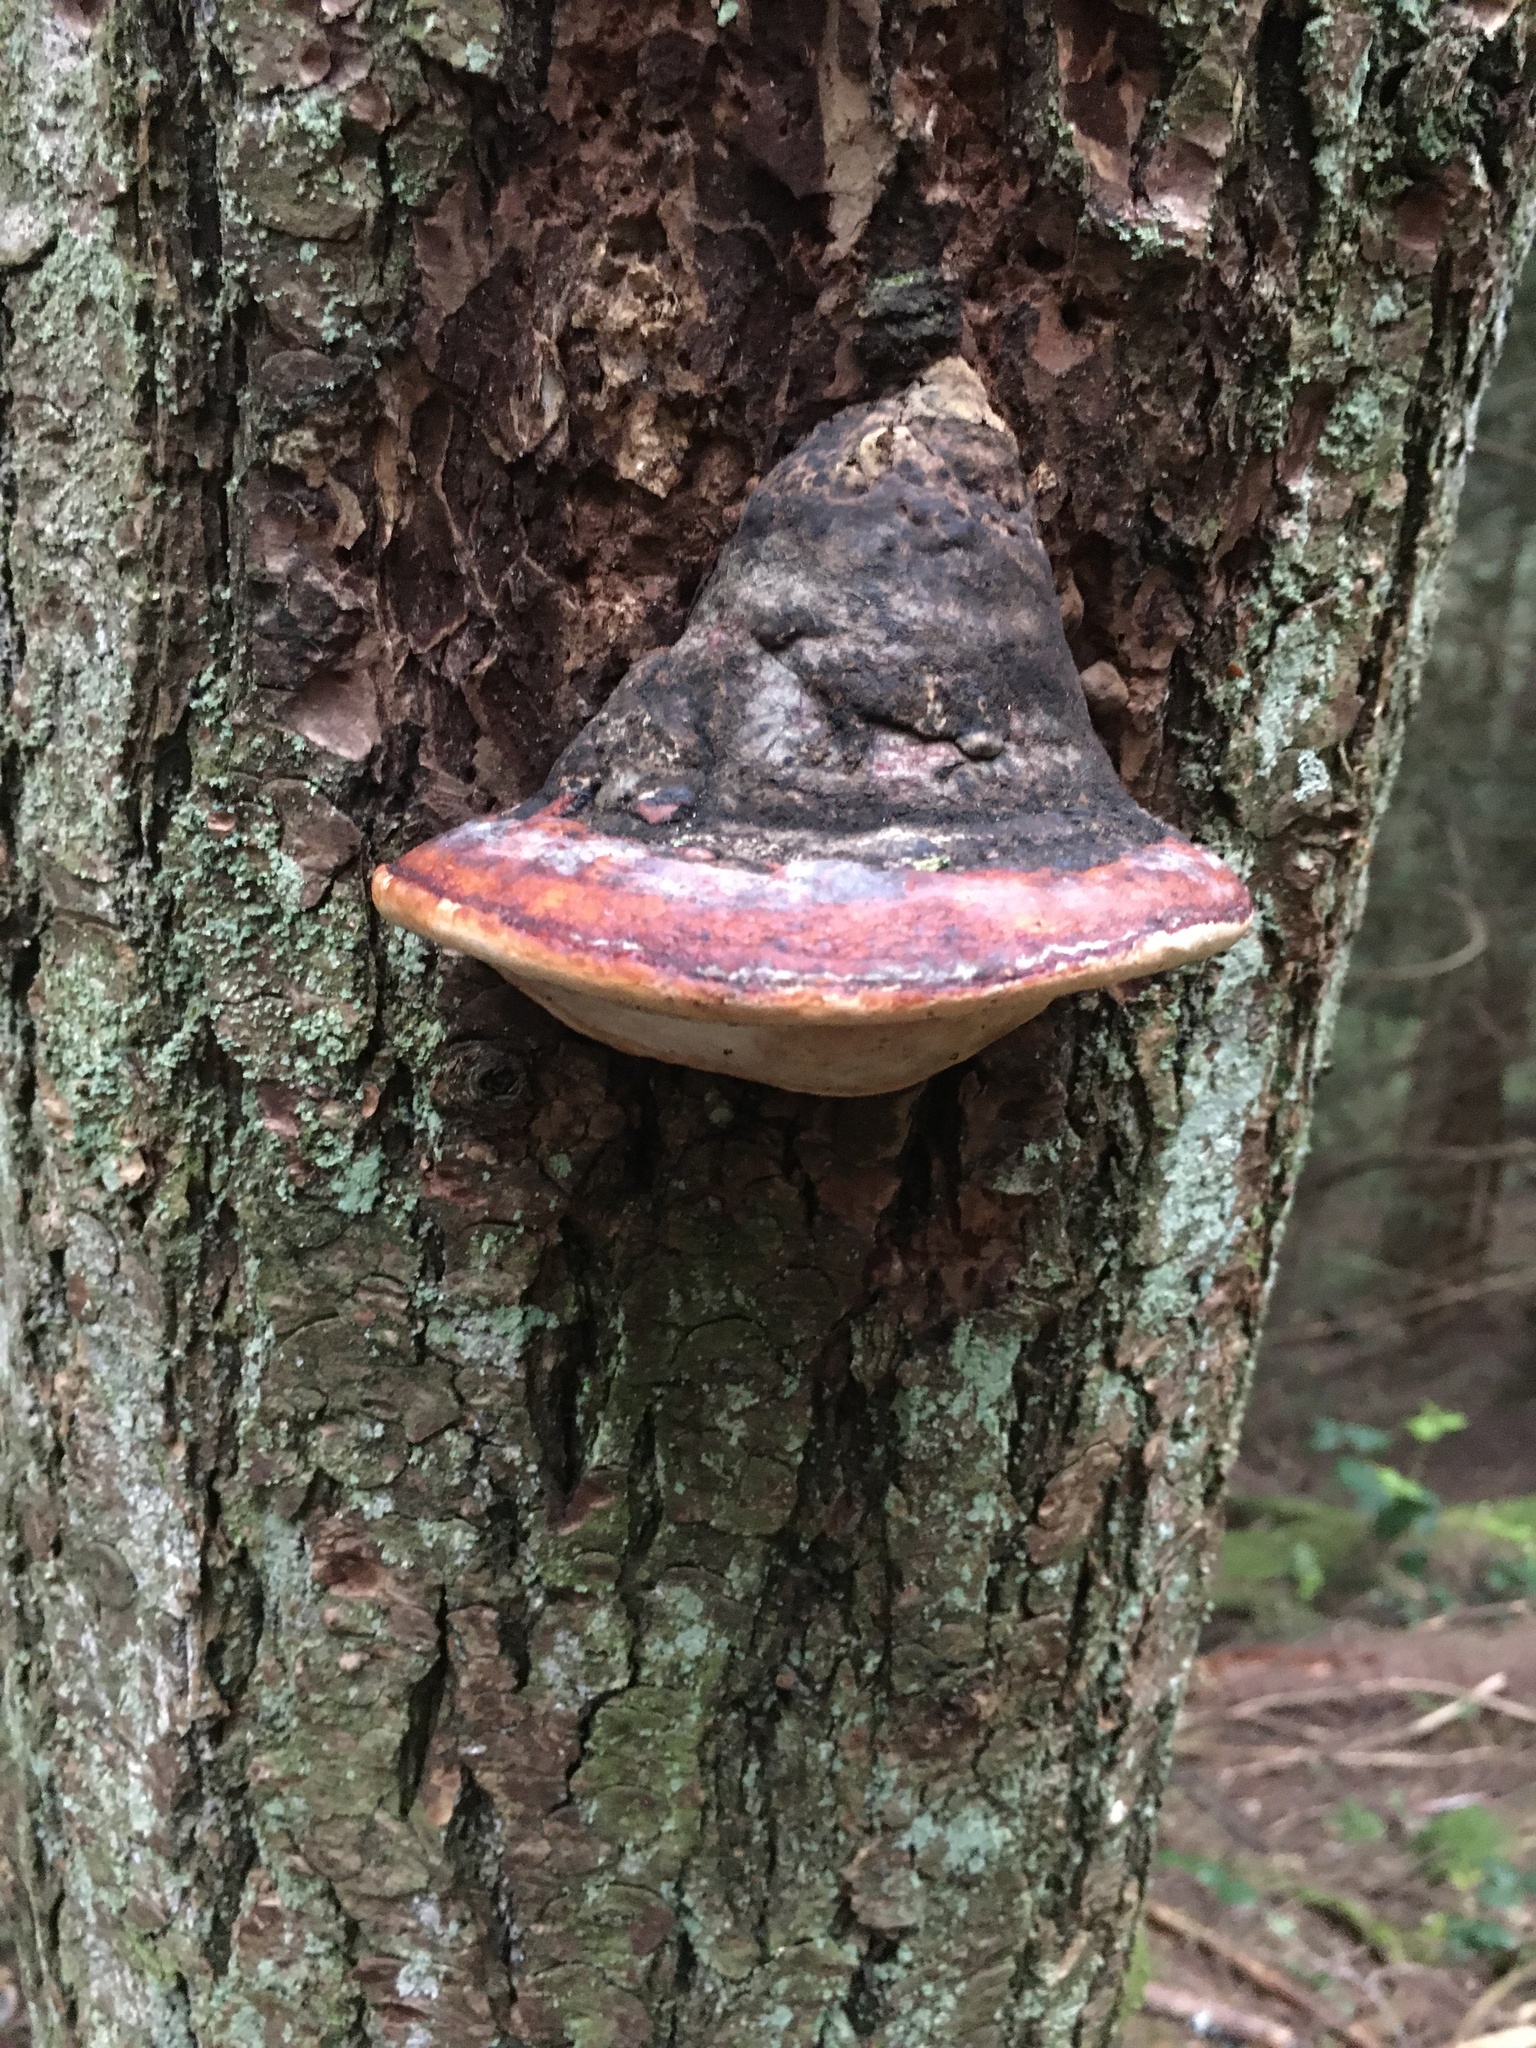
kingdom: Fungi
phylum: Basidiomycota
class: Agaricomycetes
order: Polyporales
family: Fomitopsidaceae
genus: Fomitopsis
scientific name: Fomitopsis mounceae
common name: Northern red belt
